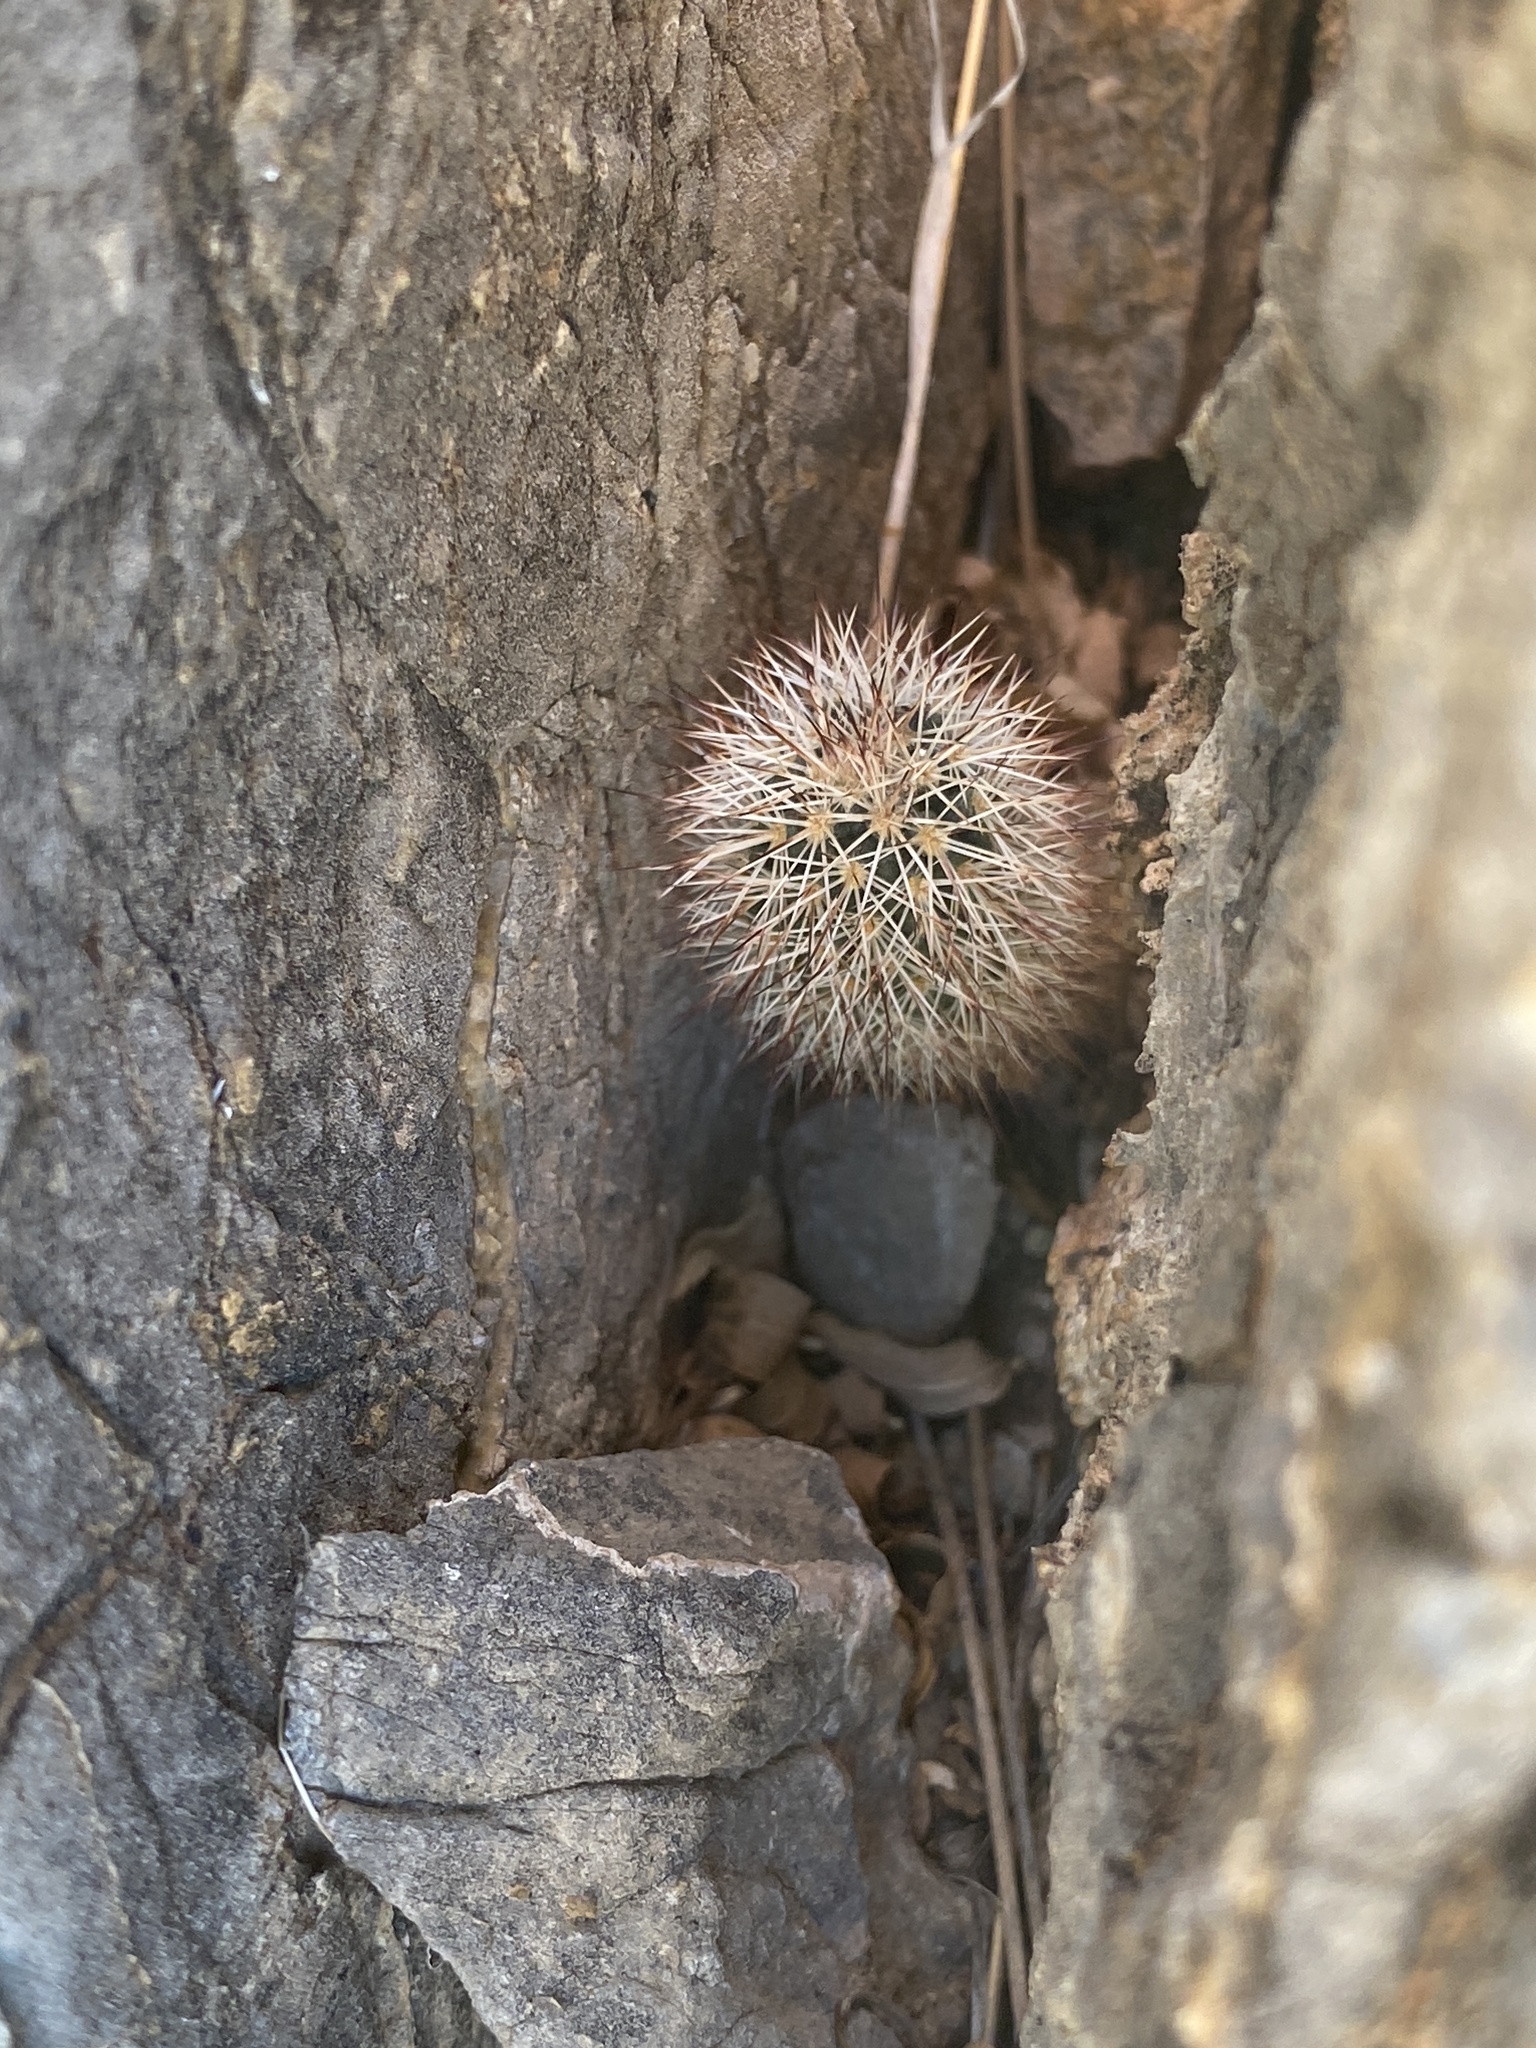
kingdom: Plantae
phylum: Tracheophyta
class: Magnoliopsida
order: Caryophyllales
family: Cactaceae
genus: Echinocereus
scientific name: Echinocereus dasyacanthus
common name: Spiny hedgehog cactus
